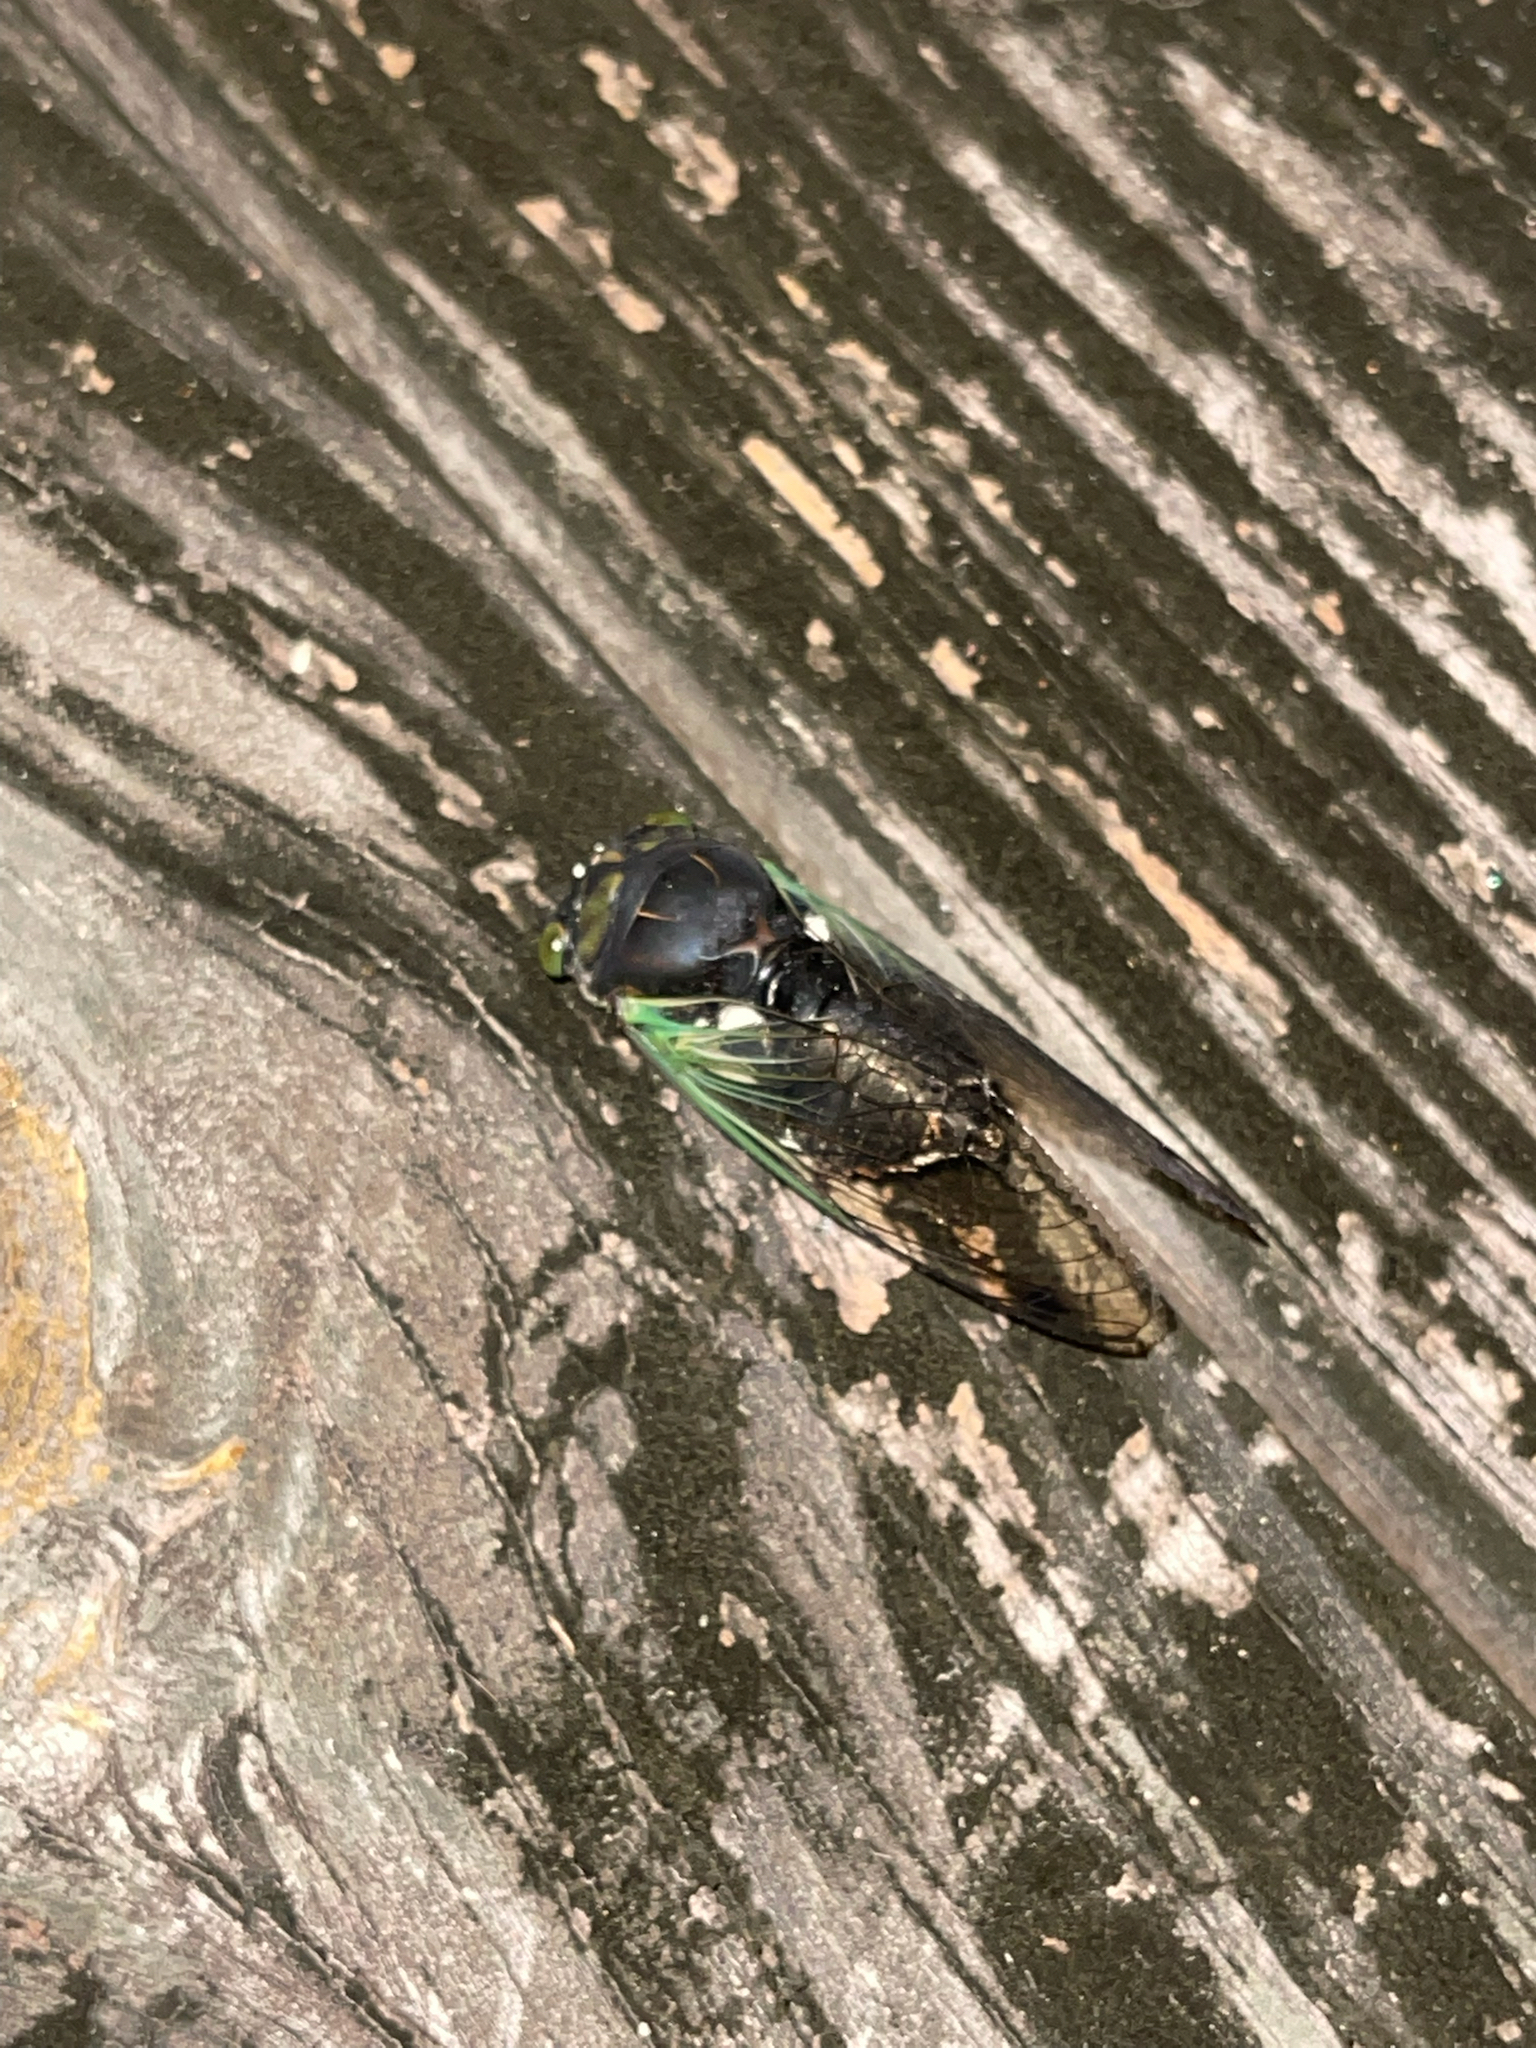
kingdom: Animalia
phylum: Arthropoda
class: Insecta
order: Hemiptera
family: Cicadidae
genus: Neotibicen
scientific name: Neotibicen tibicen
